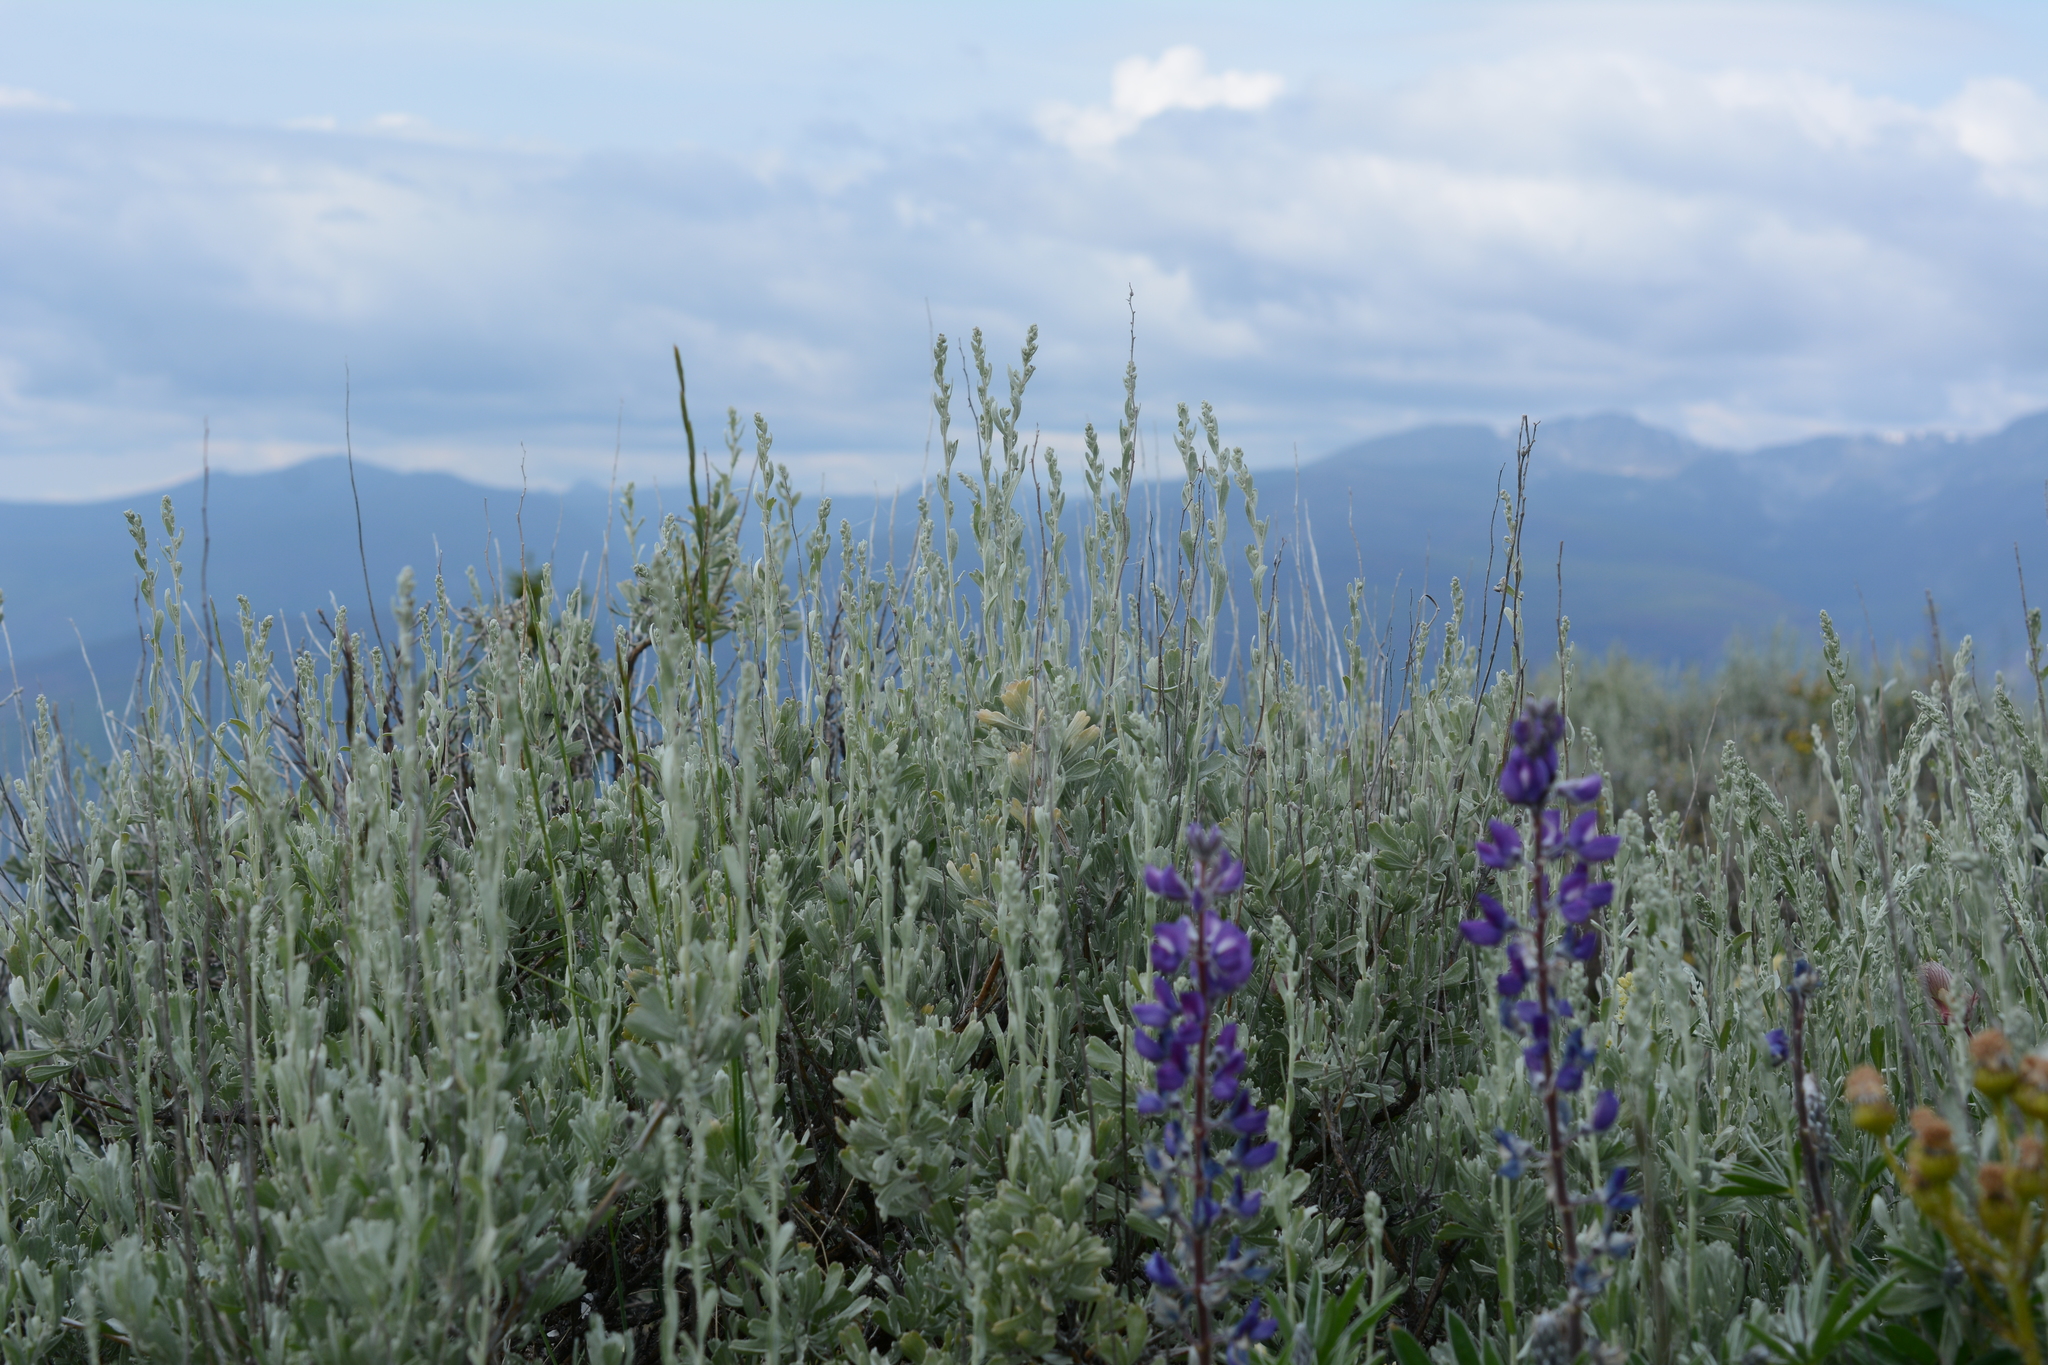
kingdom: Plantae
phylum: Tracheophyta
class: Magnoliopsida
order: Asterales
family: Asteraceae
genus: Artemisia
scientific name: Artemisia tridentata
